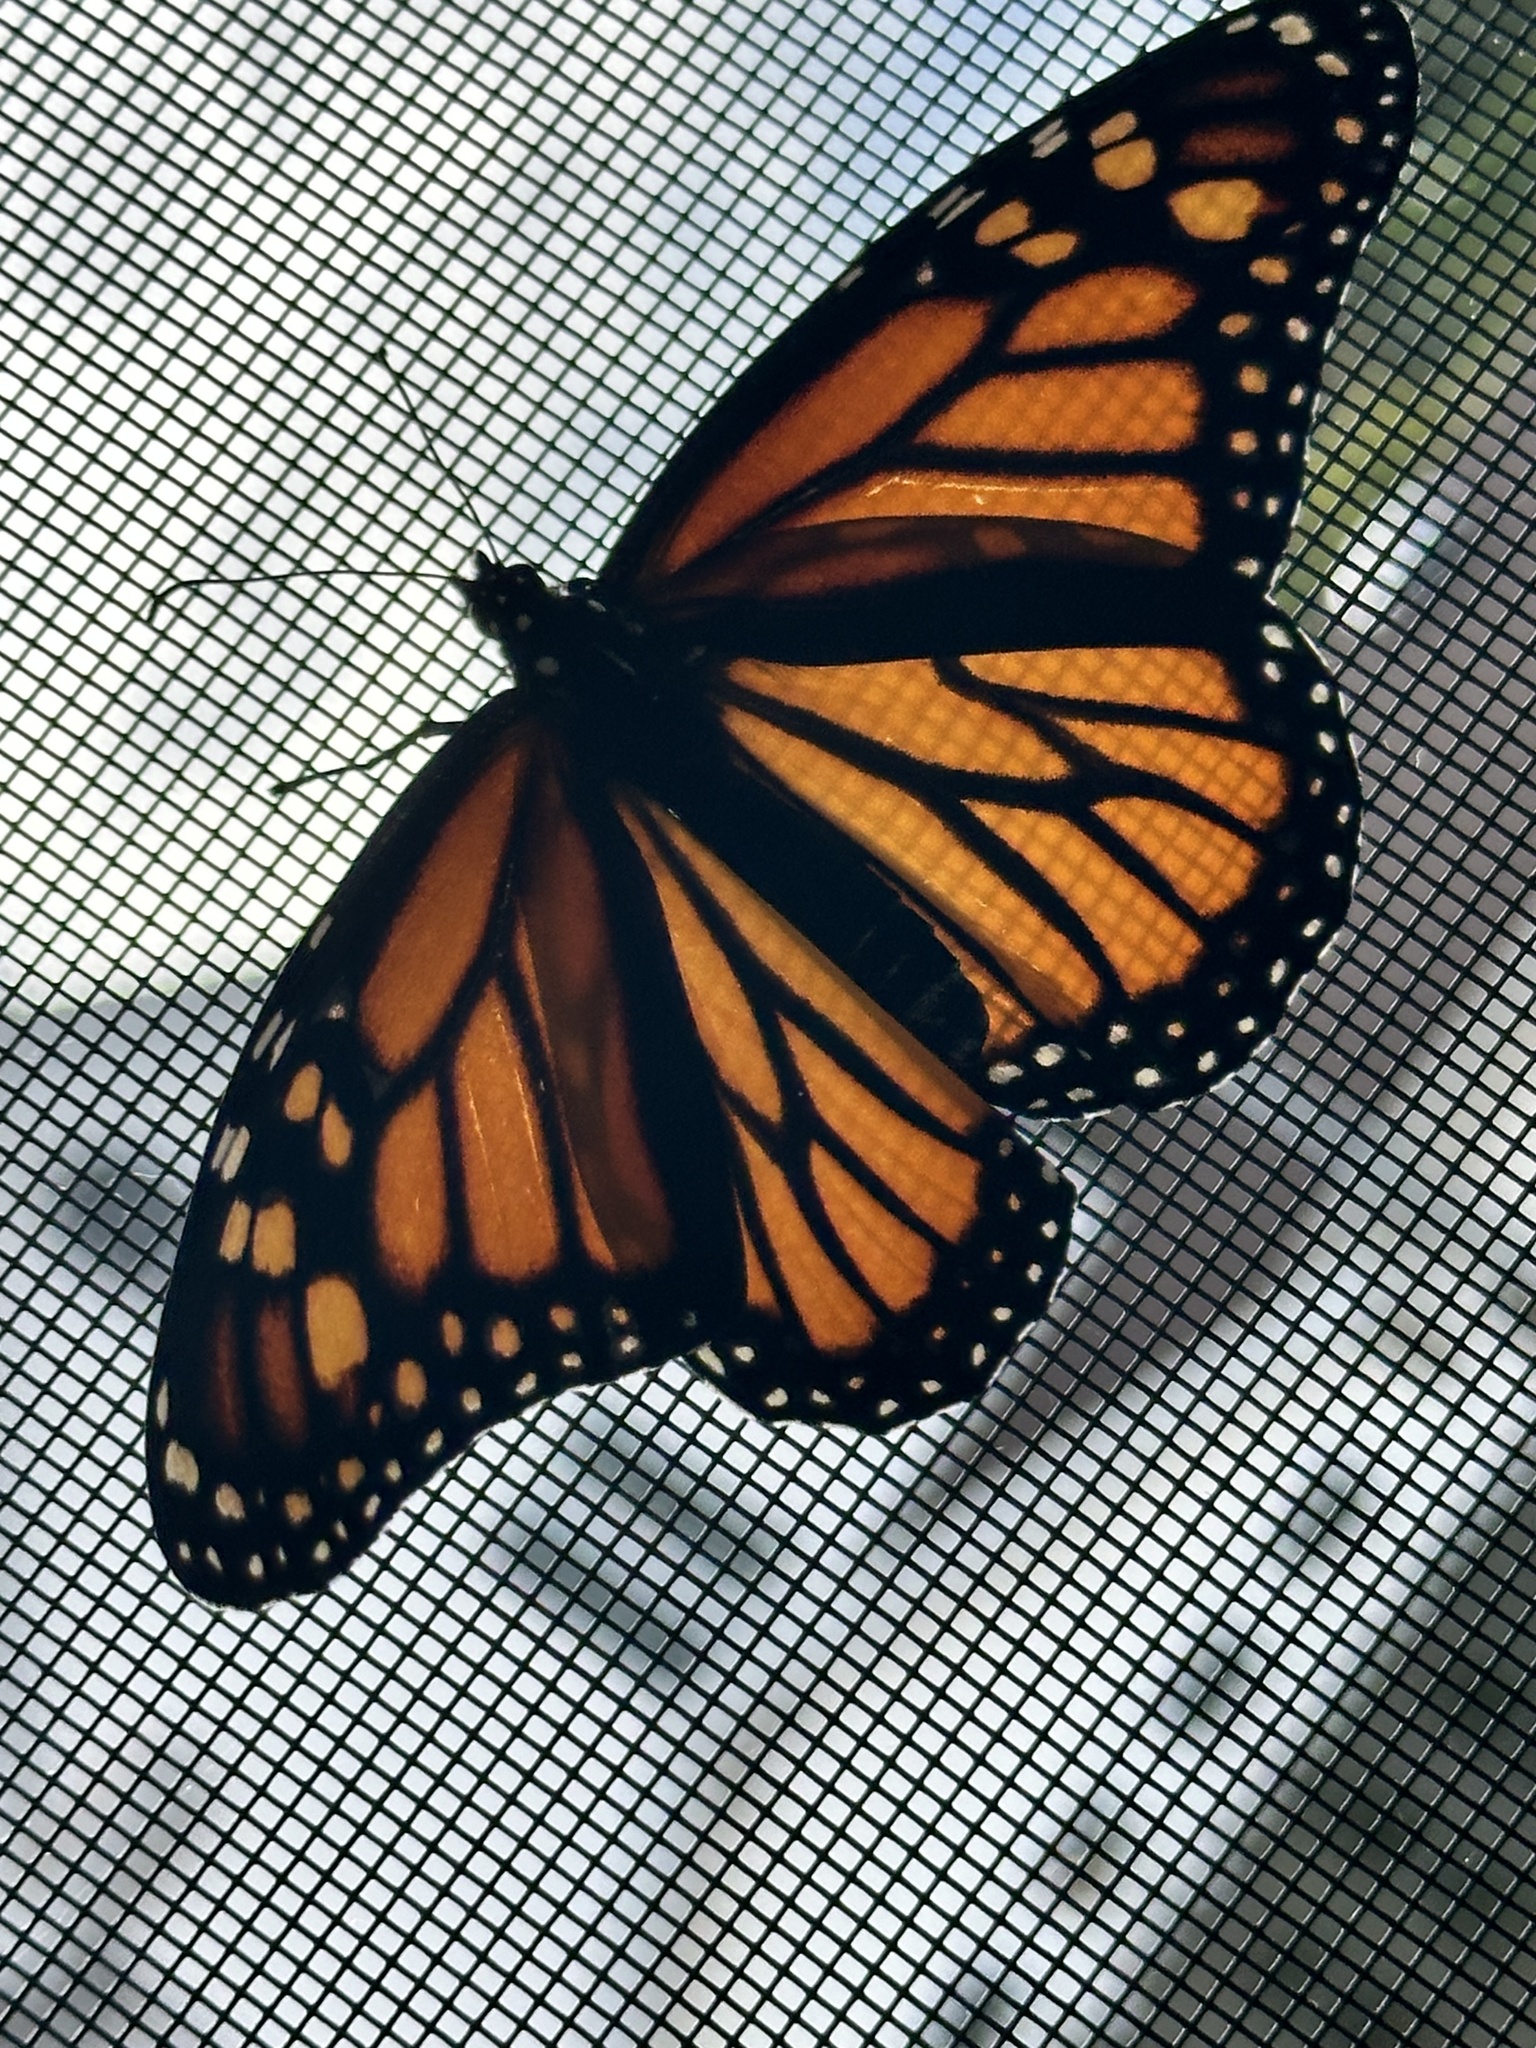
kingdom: Animalia
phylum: Arthropoda
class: Insecta
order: Lepidoptera
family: Nymphalidae
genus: Danaus
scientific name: Danaus plexippus
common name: Monarch
